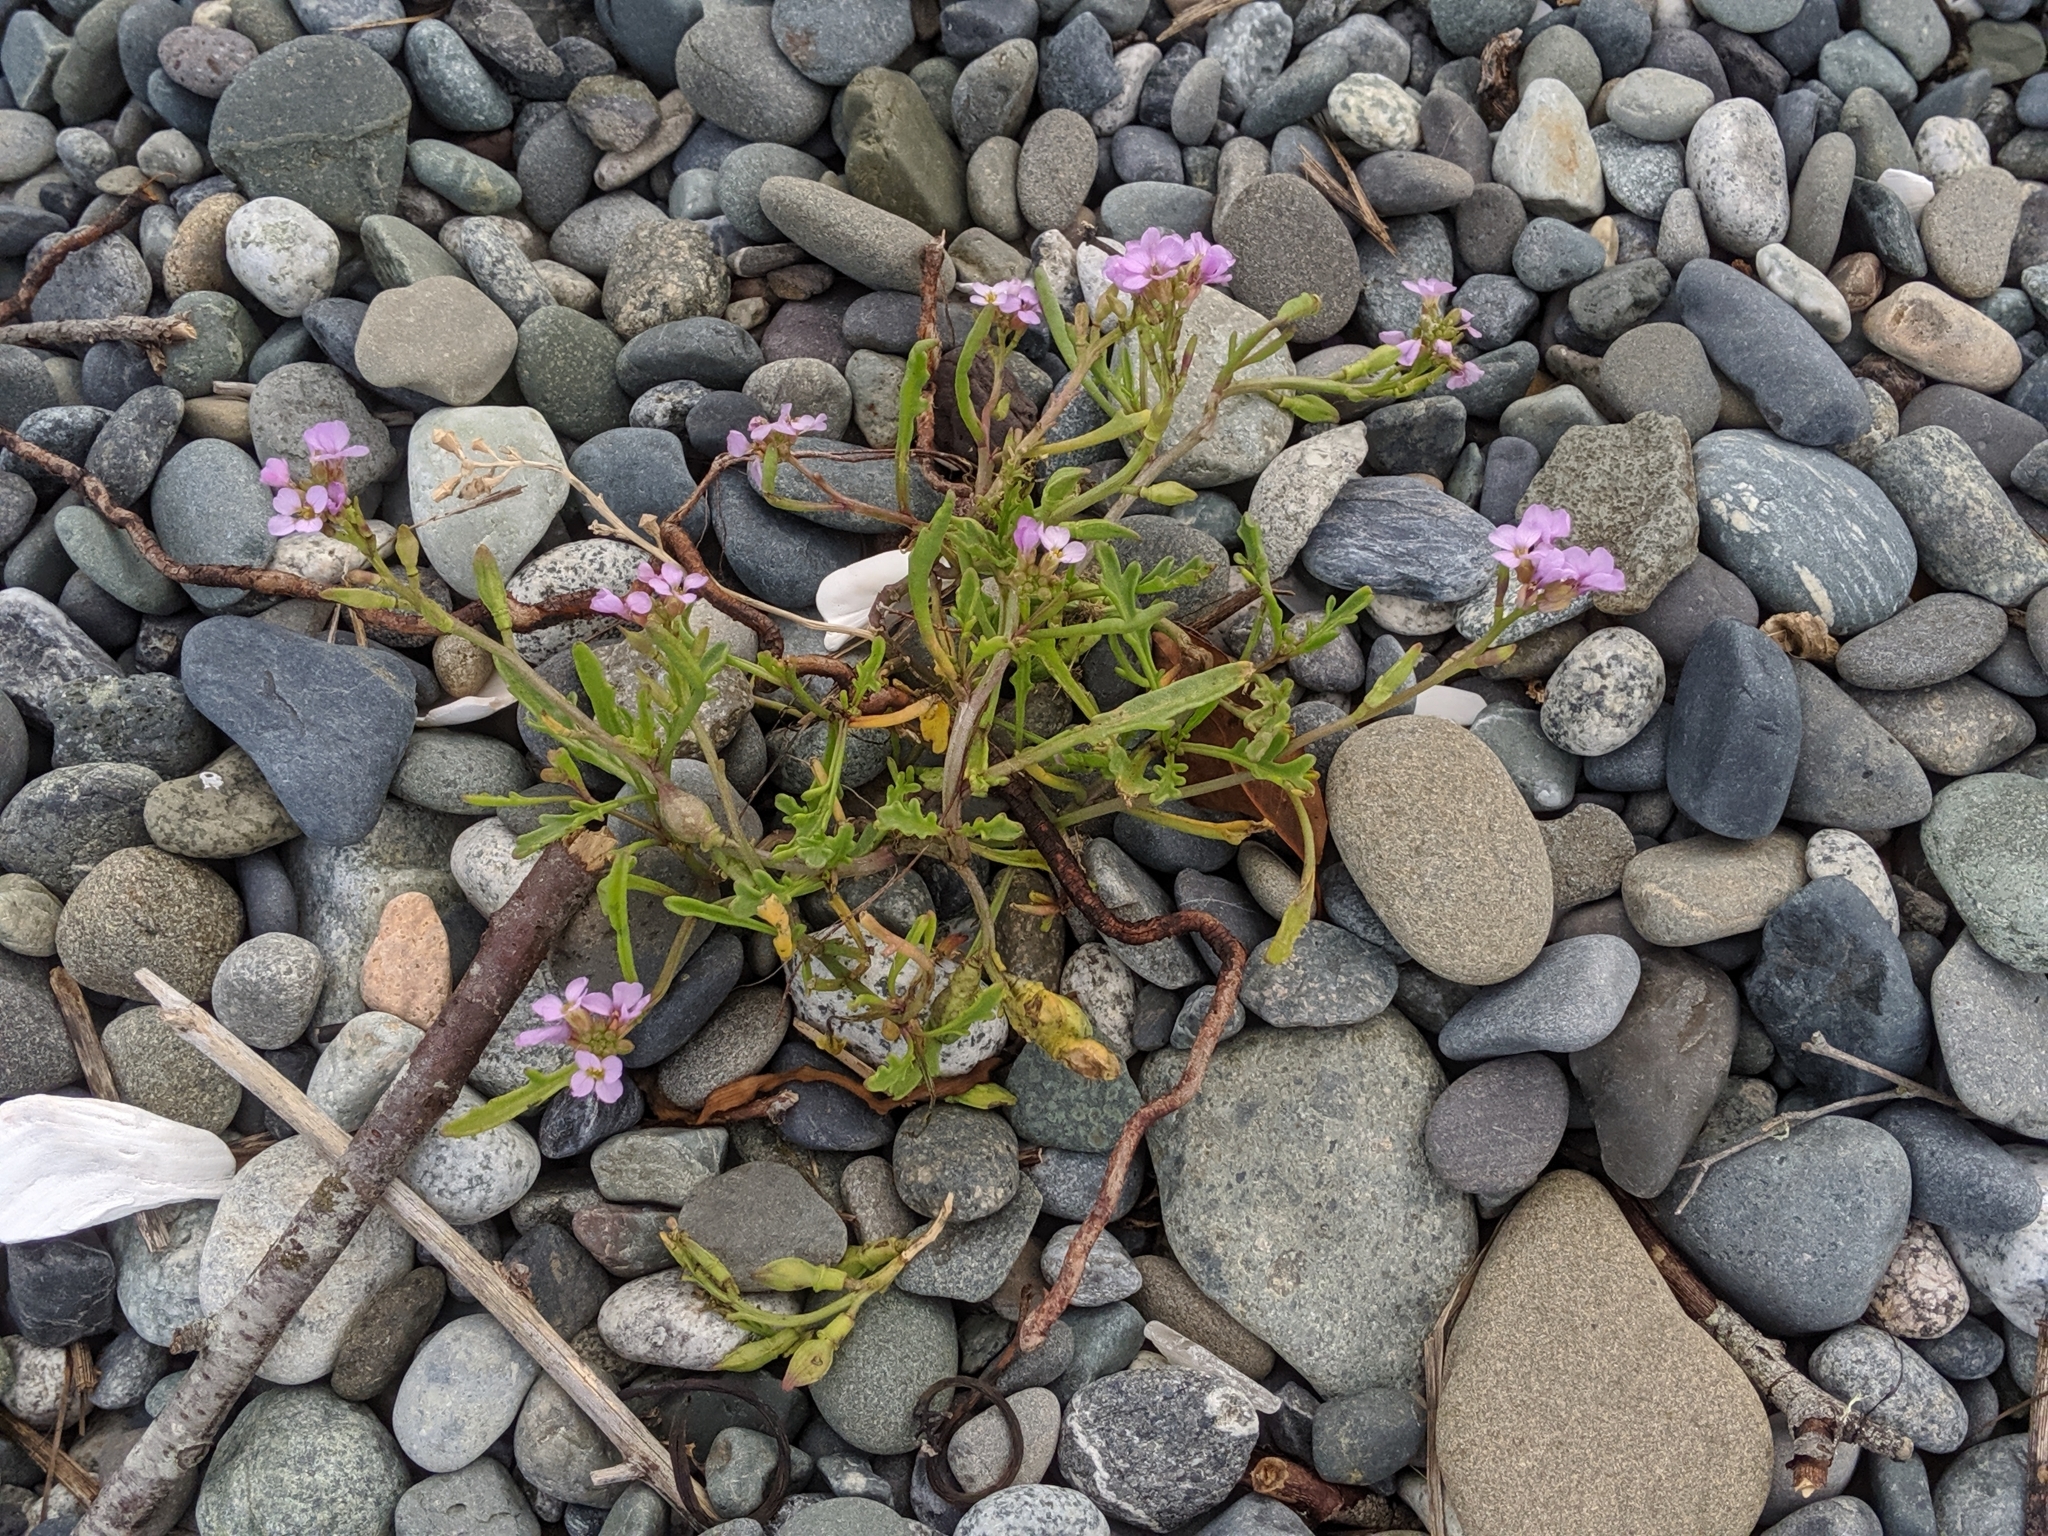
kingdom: Plantae
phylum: Tracheophyta
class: Magnoliopsida
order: Brassicales
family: Brassicaceae
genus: Cakile
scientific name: Cakile maritima
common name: Sea rocket
